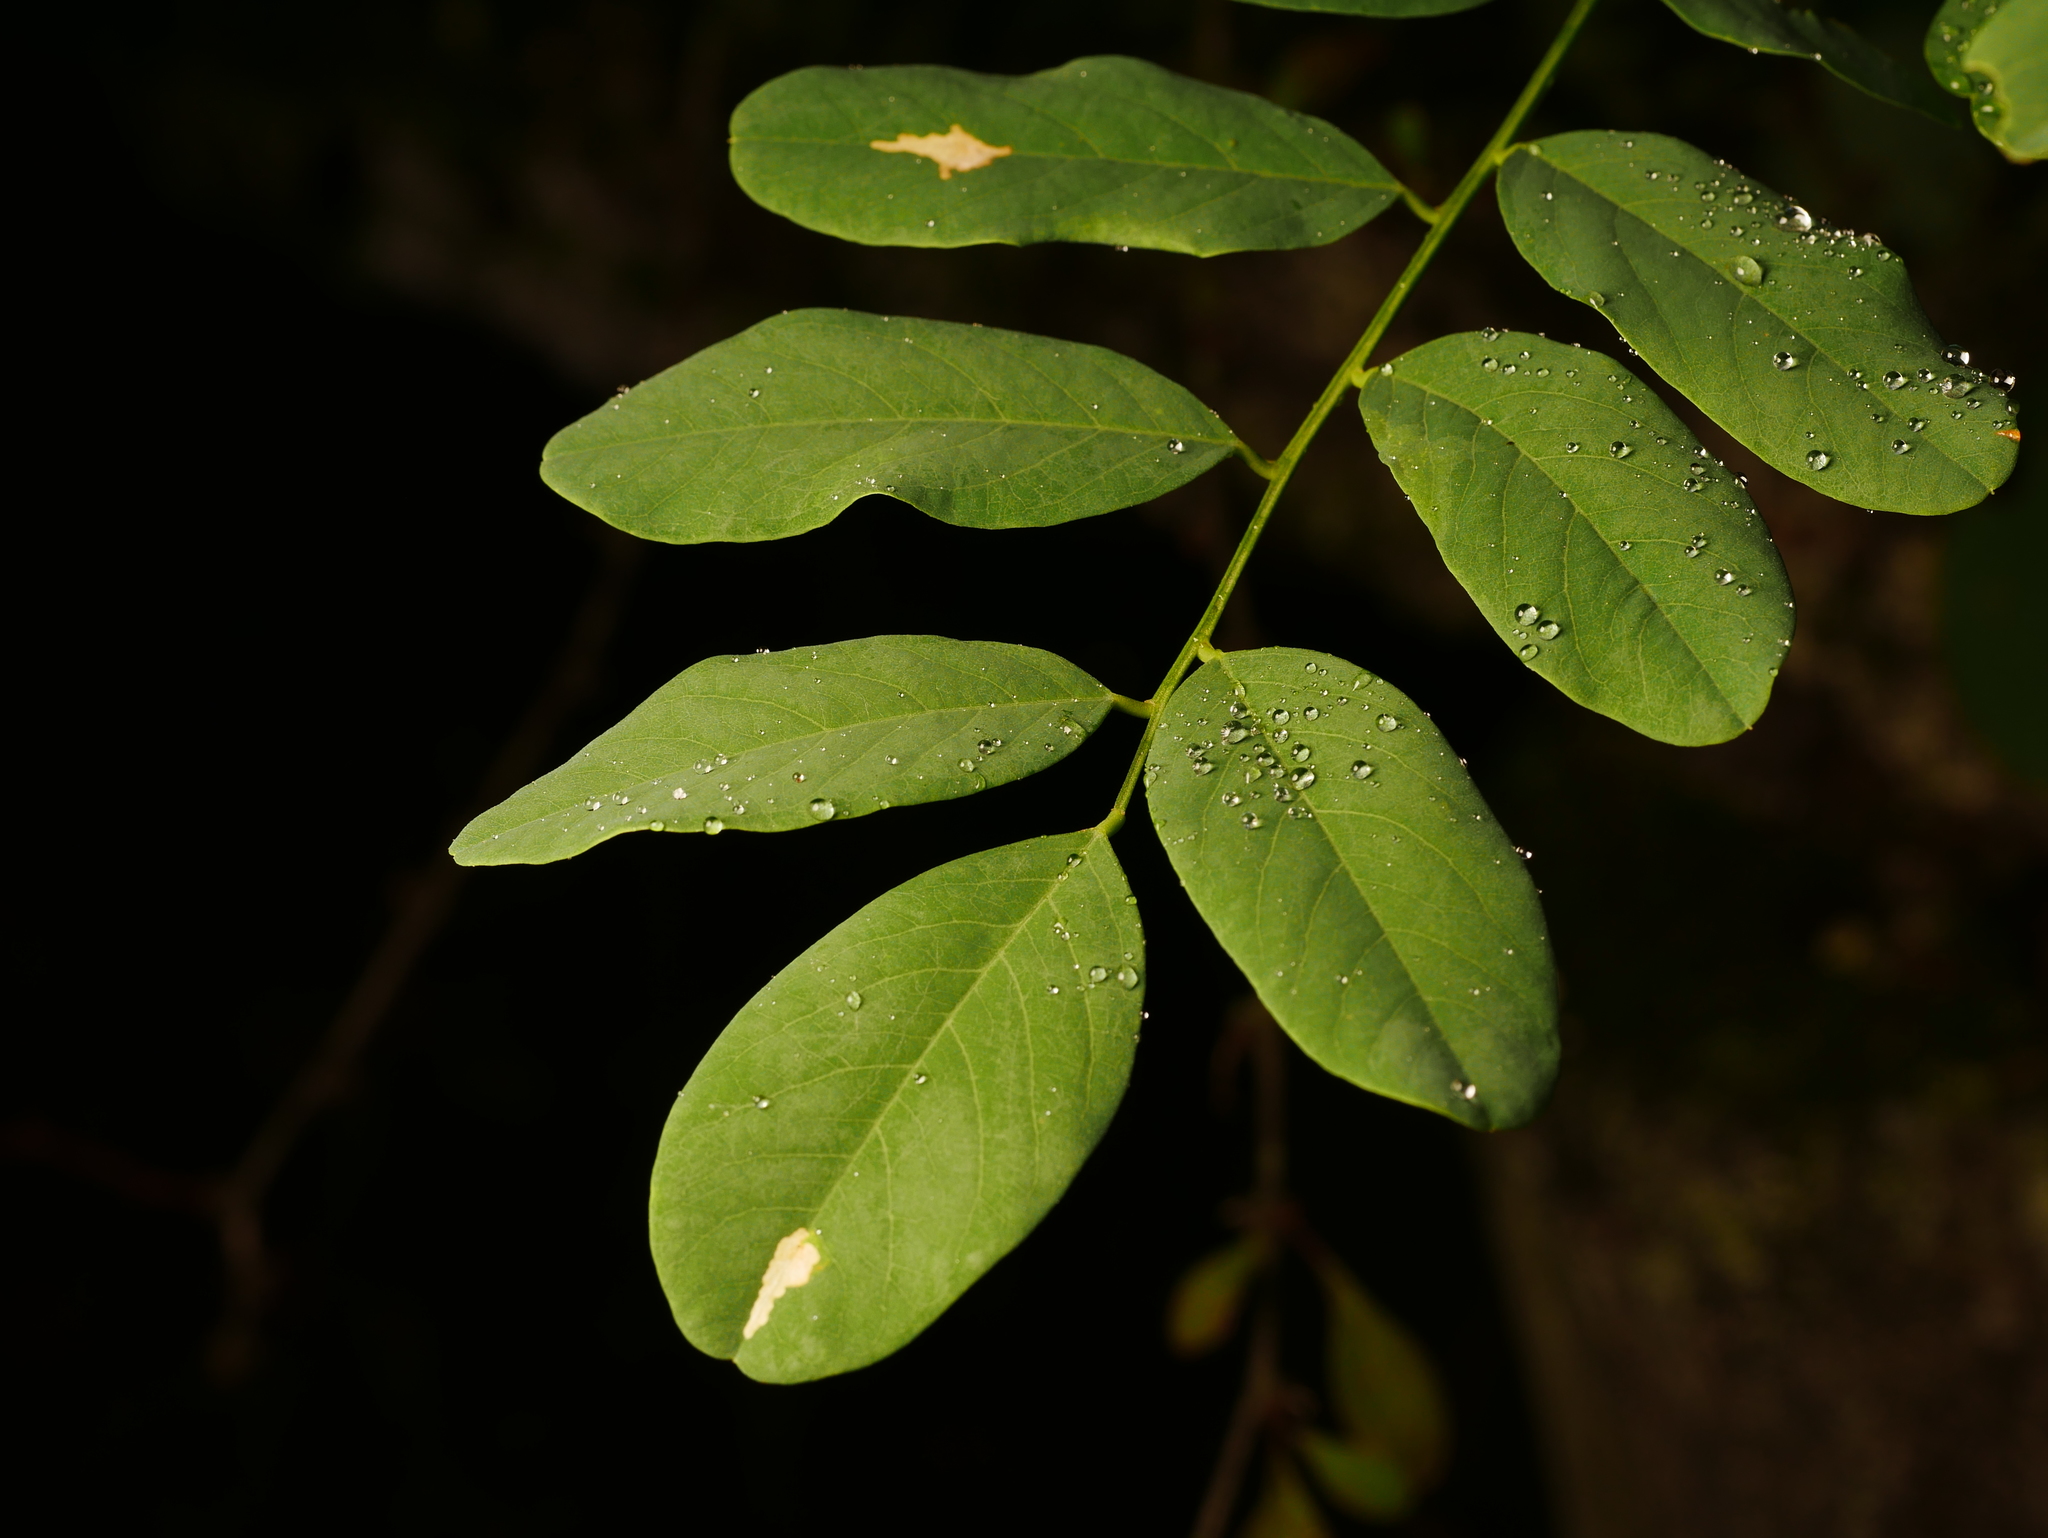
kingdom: Plantae
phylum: Tracheophyta
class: Magnoliopsida
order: Fabales
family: Fabaceae
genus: Robinia
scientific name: Robinia pseudoacacia
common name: Black locust
